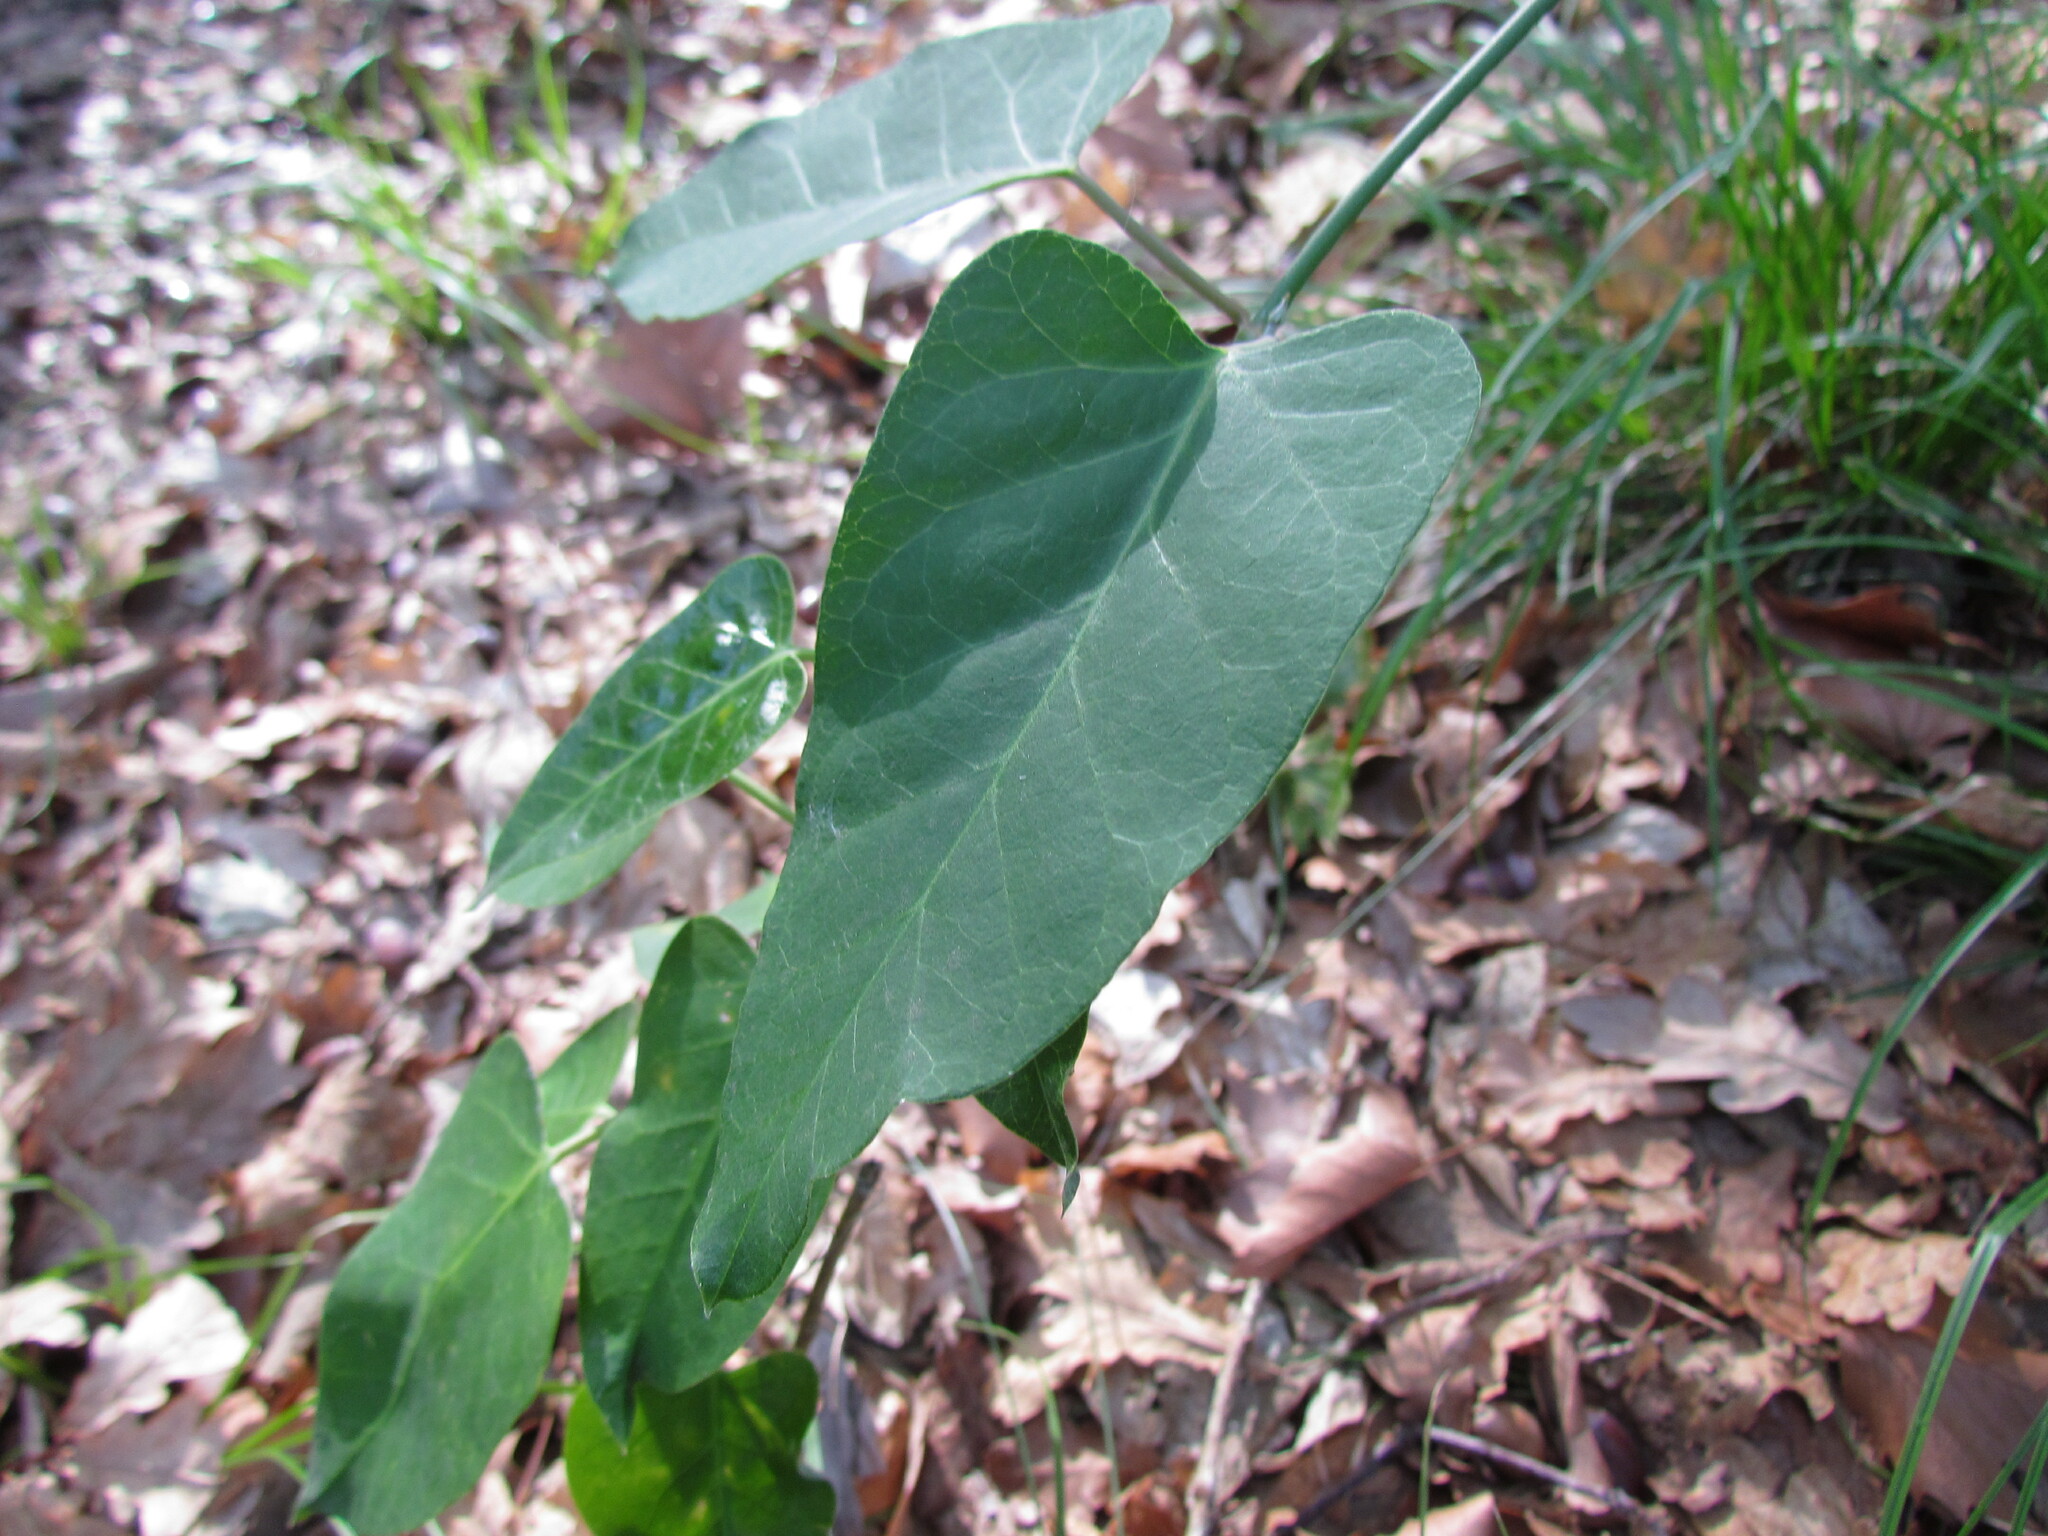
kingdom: Plantae
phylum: Tracheophyta
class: Magnoliopsida
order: Gentianales
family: Apocynaceae
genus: Araujia
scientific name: Araujia sericifera
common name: White bladderflower
